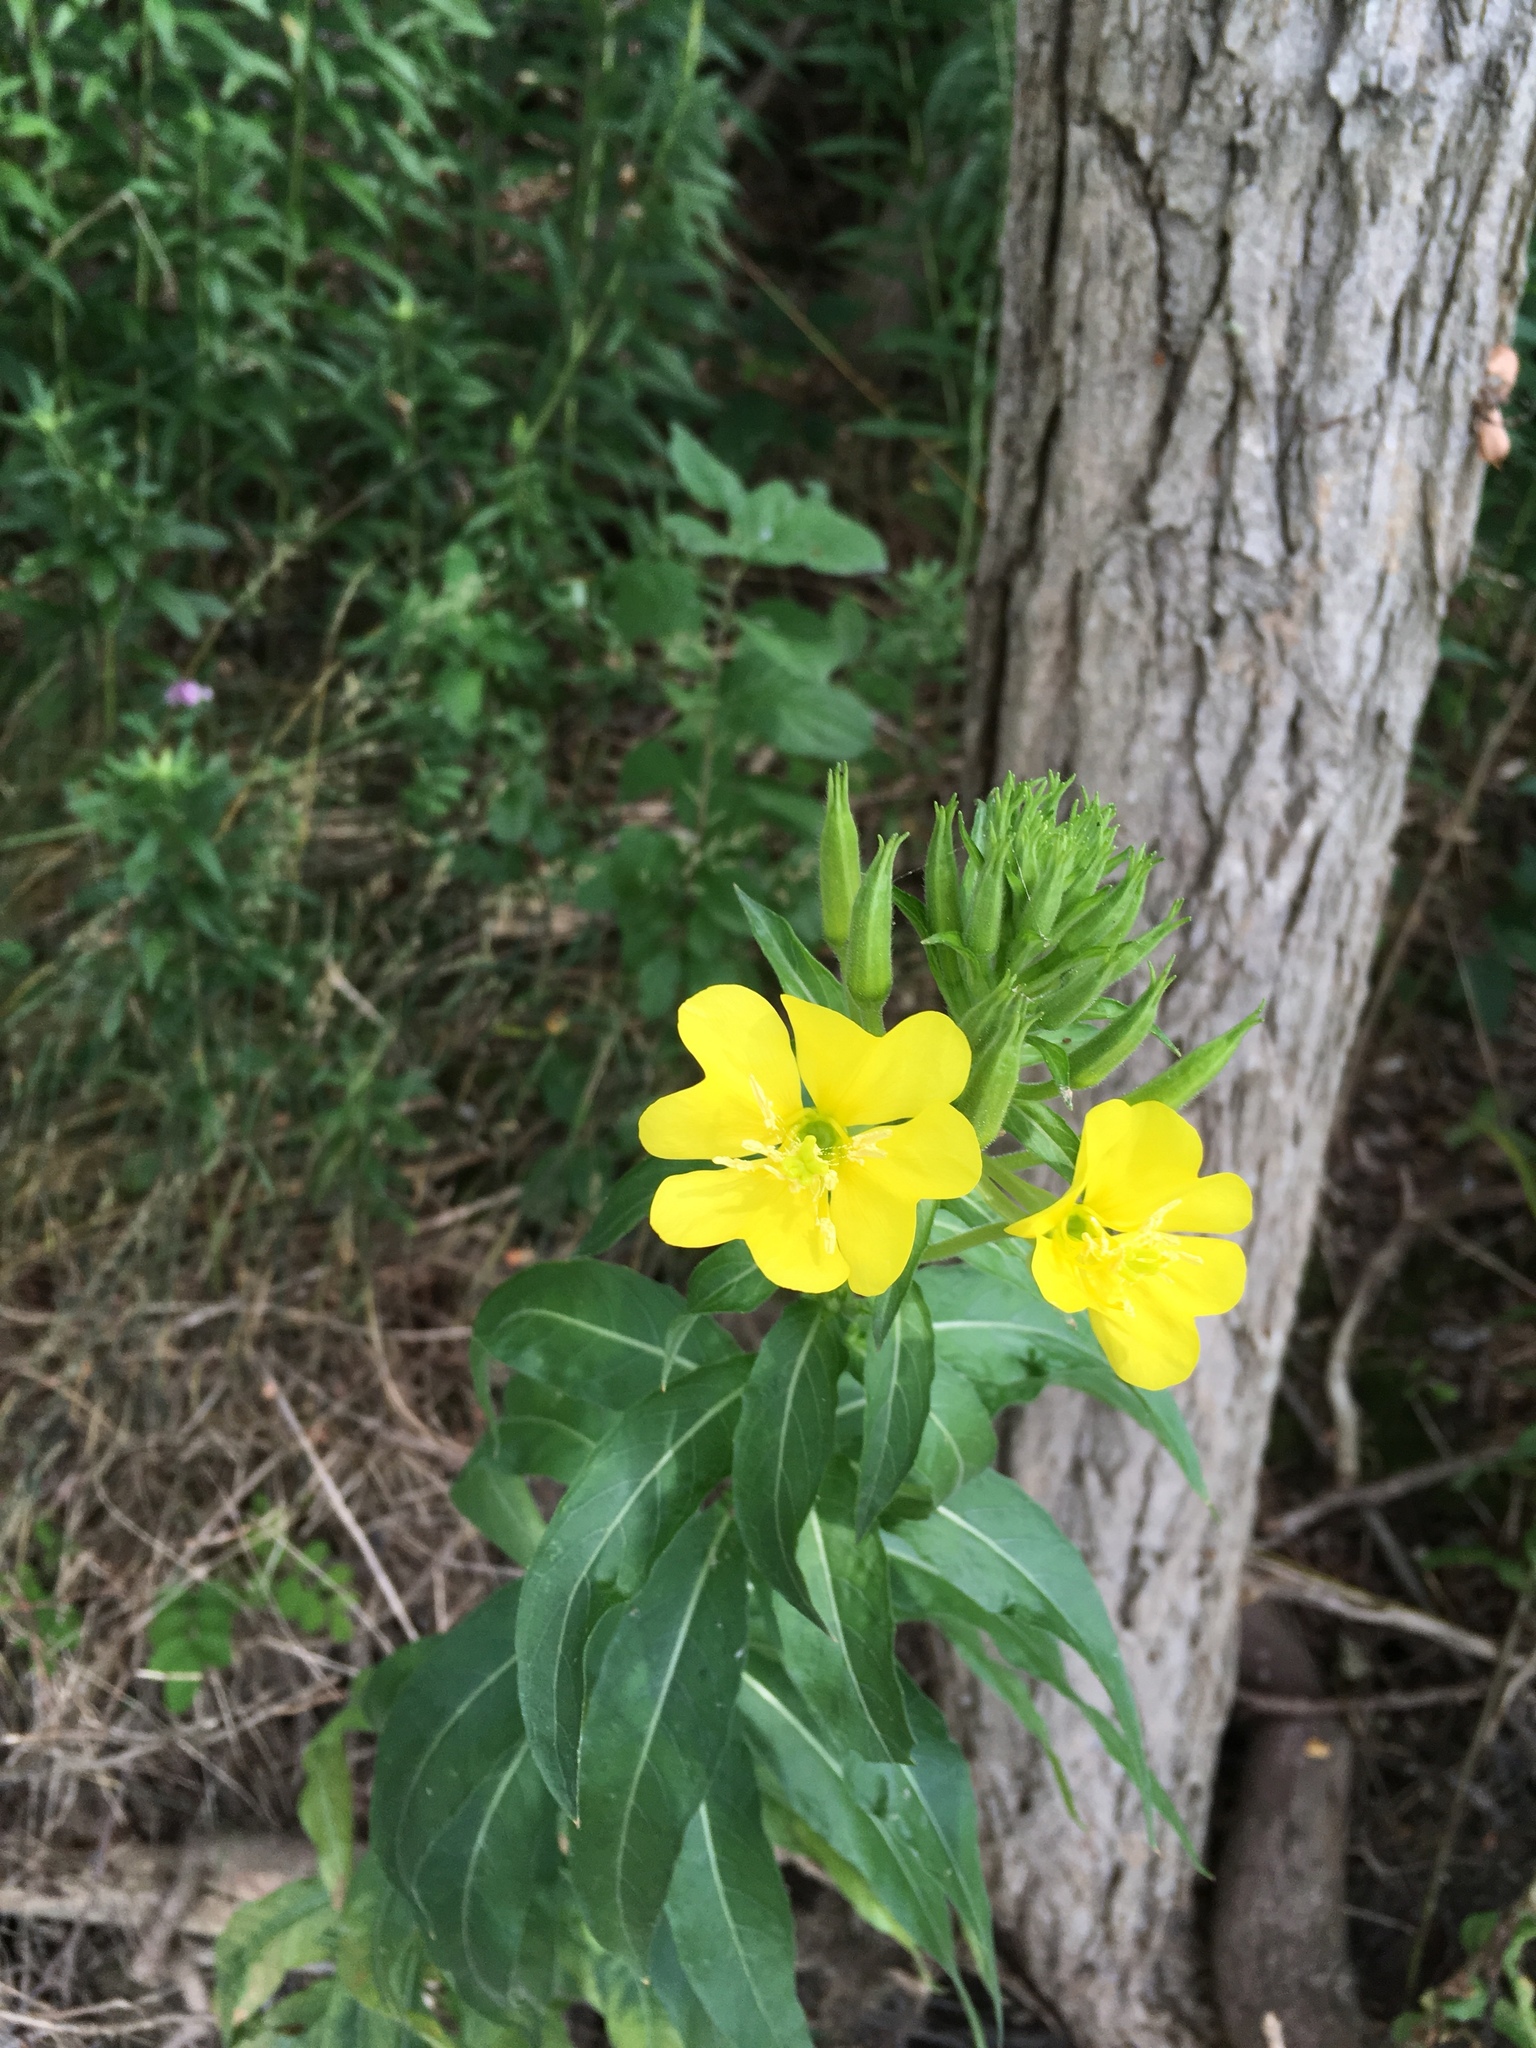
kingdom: Plantae
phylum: Tracheophyta
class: Magnoliopsida
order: Myrtales
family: Onagraceae
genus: Oenothera
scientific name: Oenothera biennis
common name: Common evening-primrose
